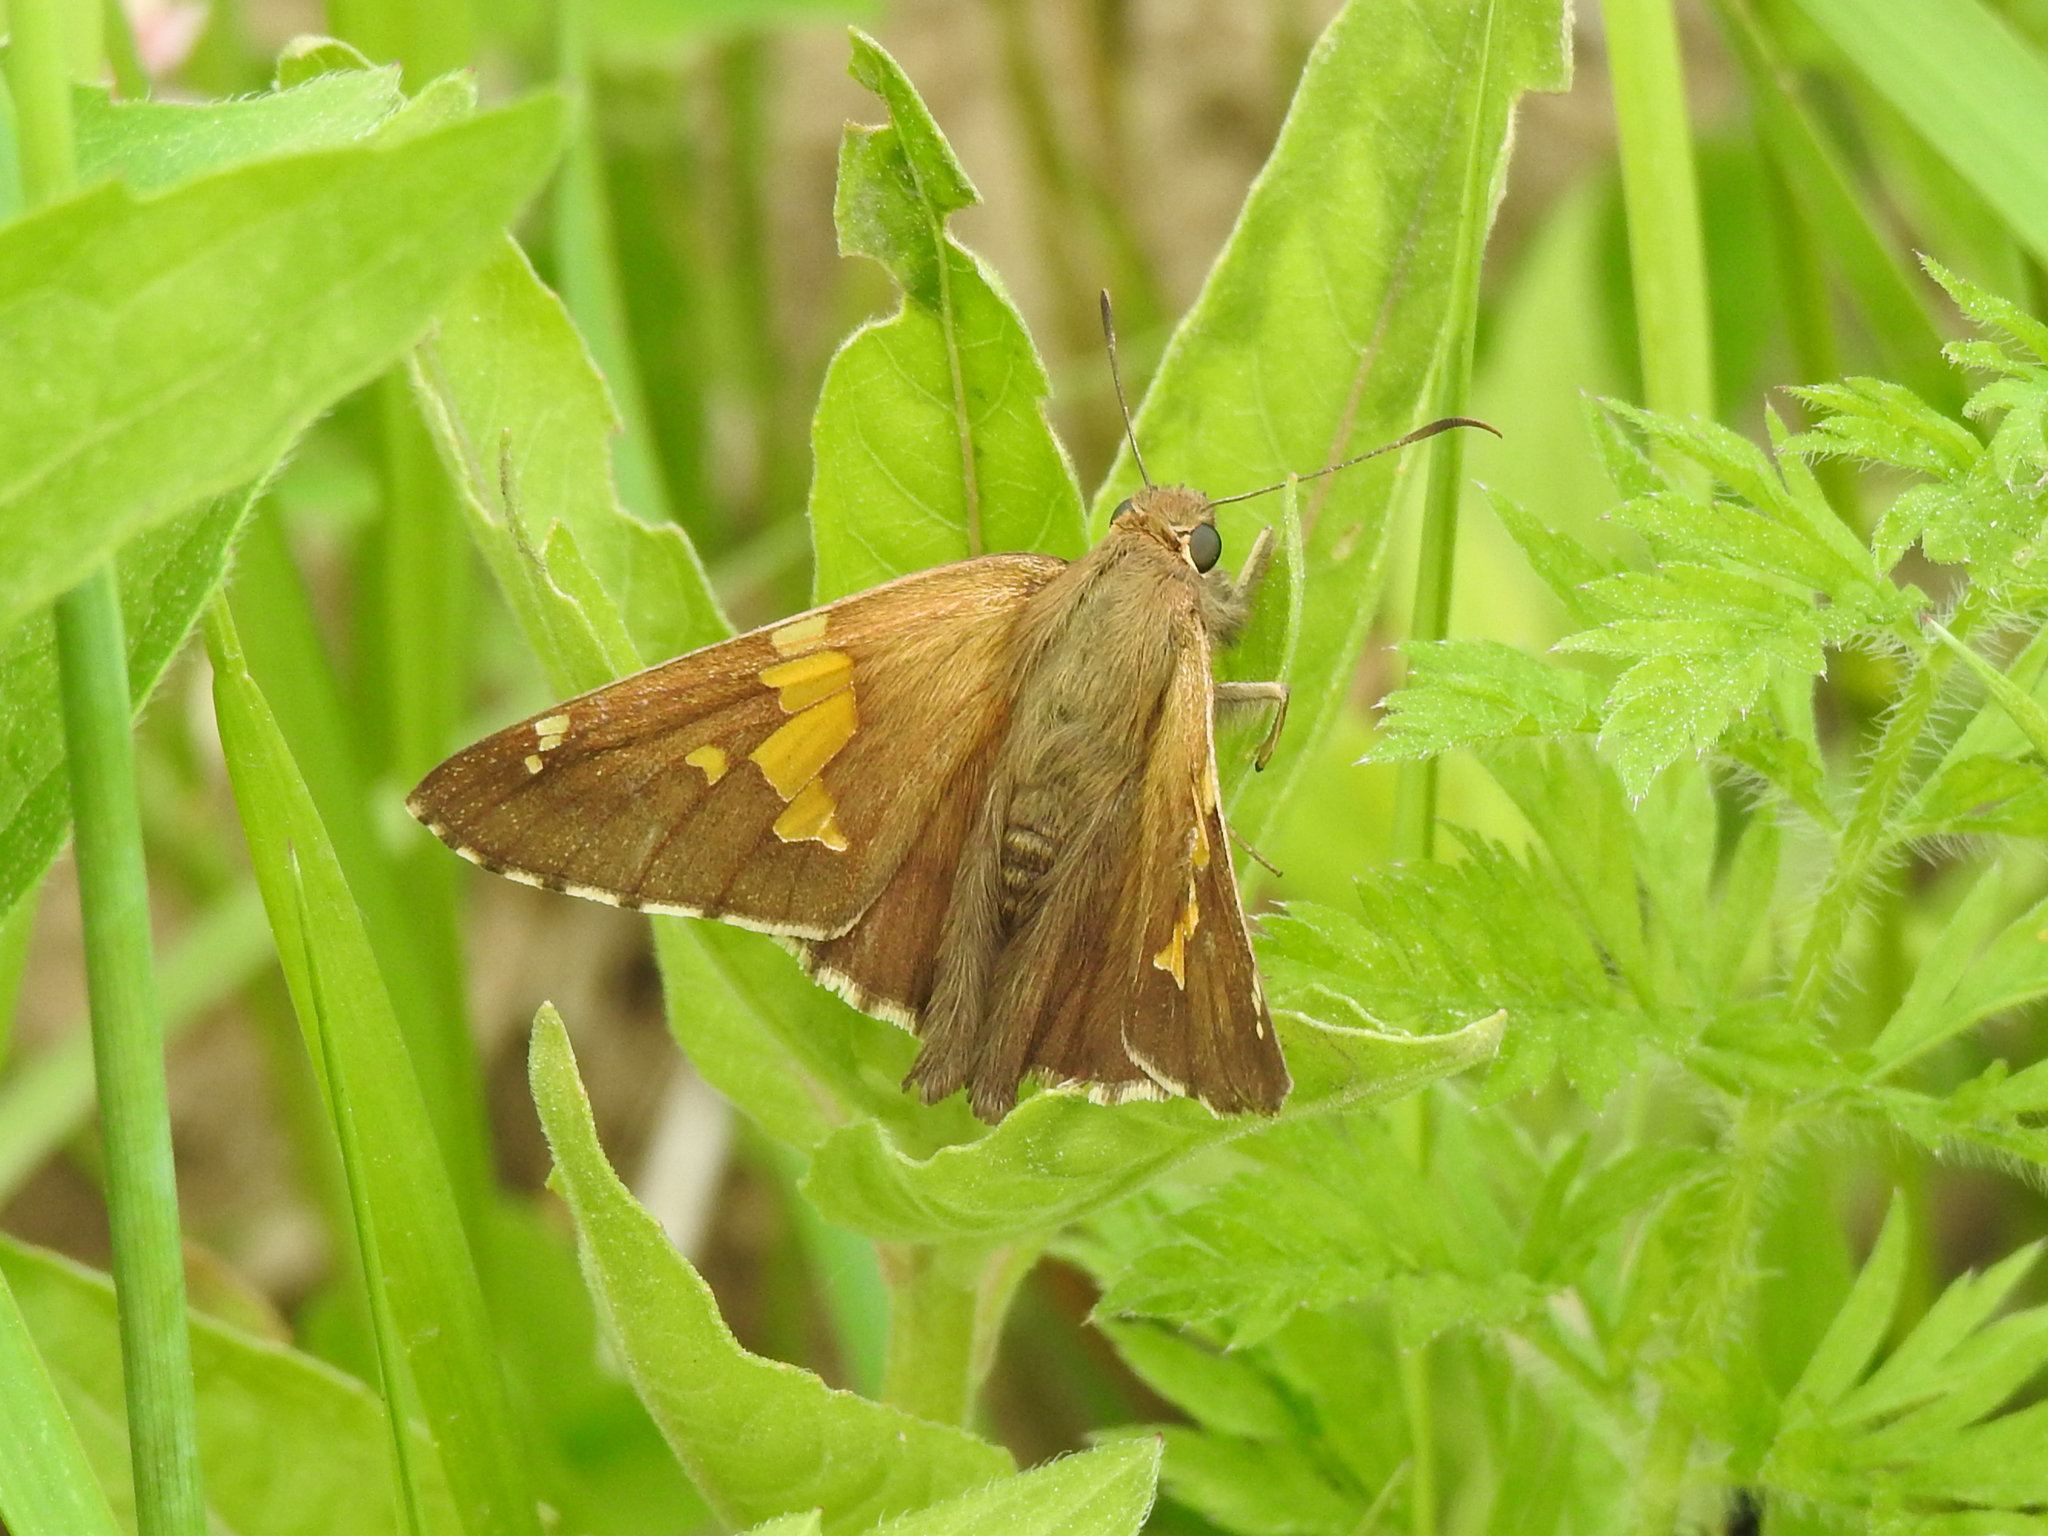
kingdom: Animalia
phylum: Arthropoda
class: Insecta
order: Lepidoptera
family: Hesperiidae
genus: Epargyreus
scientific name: Epargyreus clarus
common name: Silver-spotted skipper
